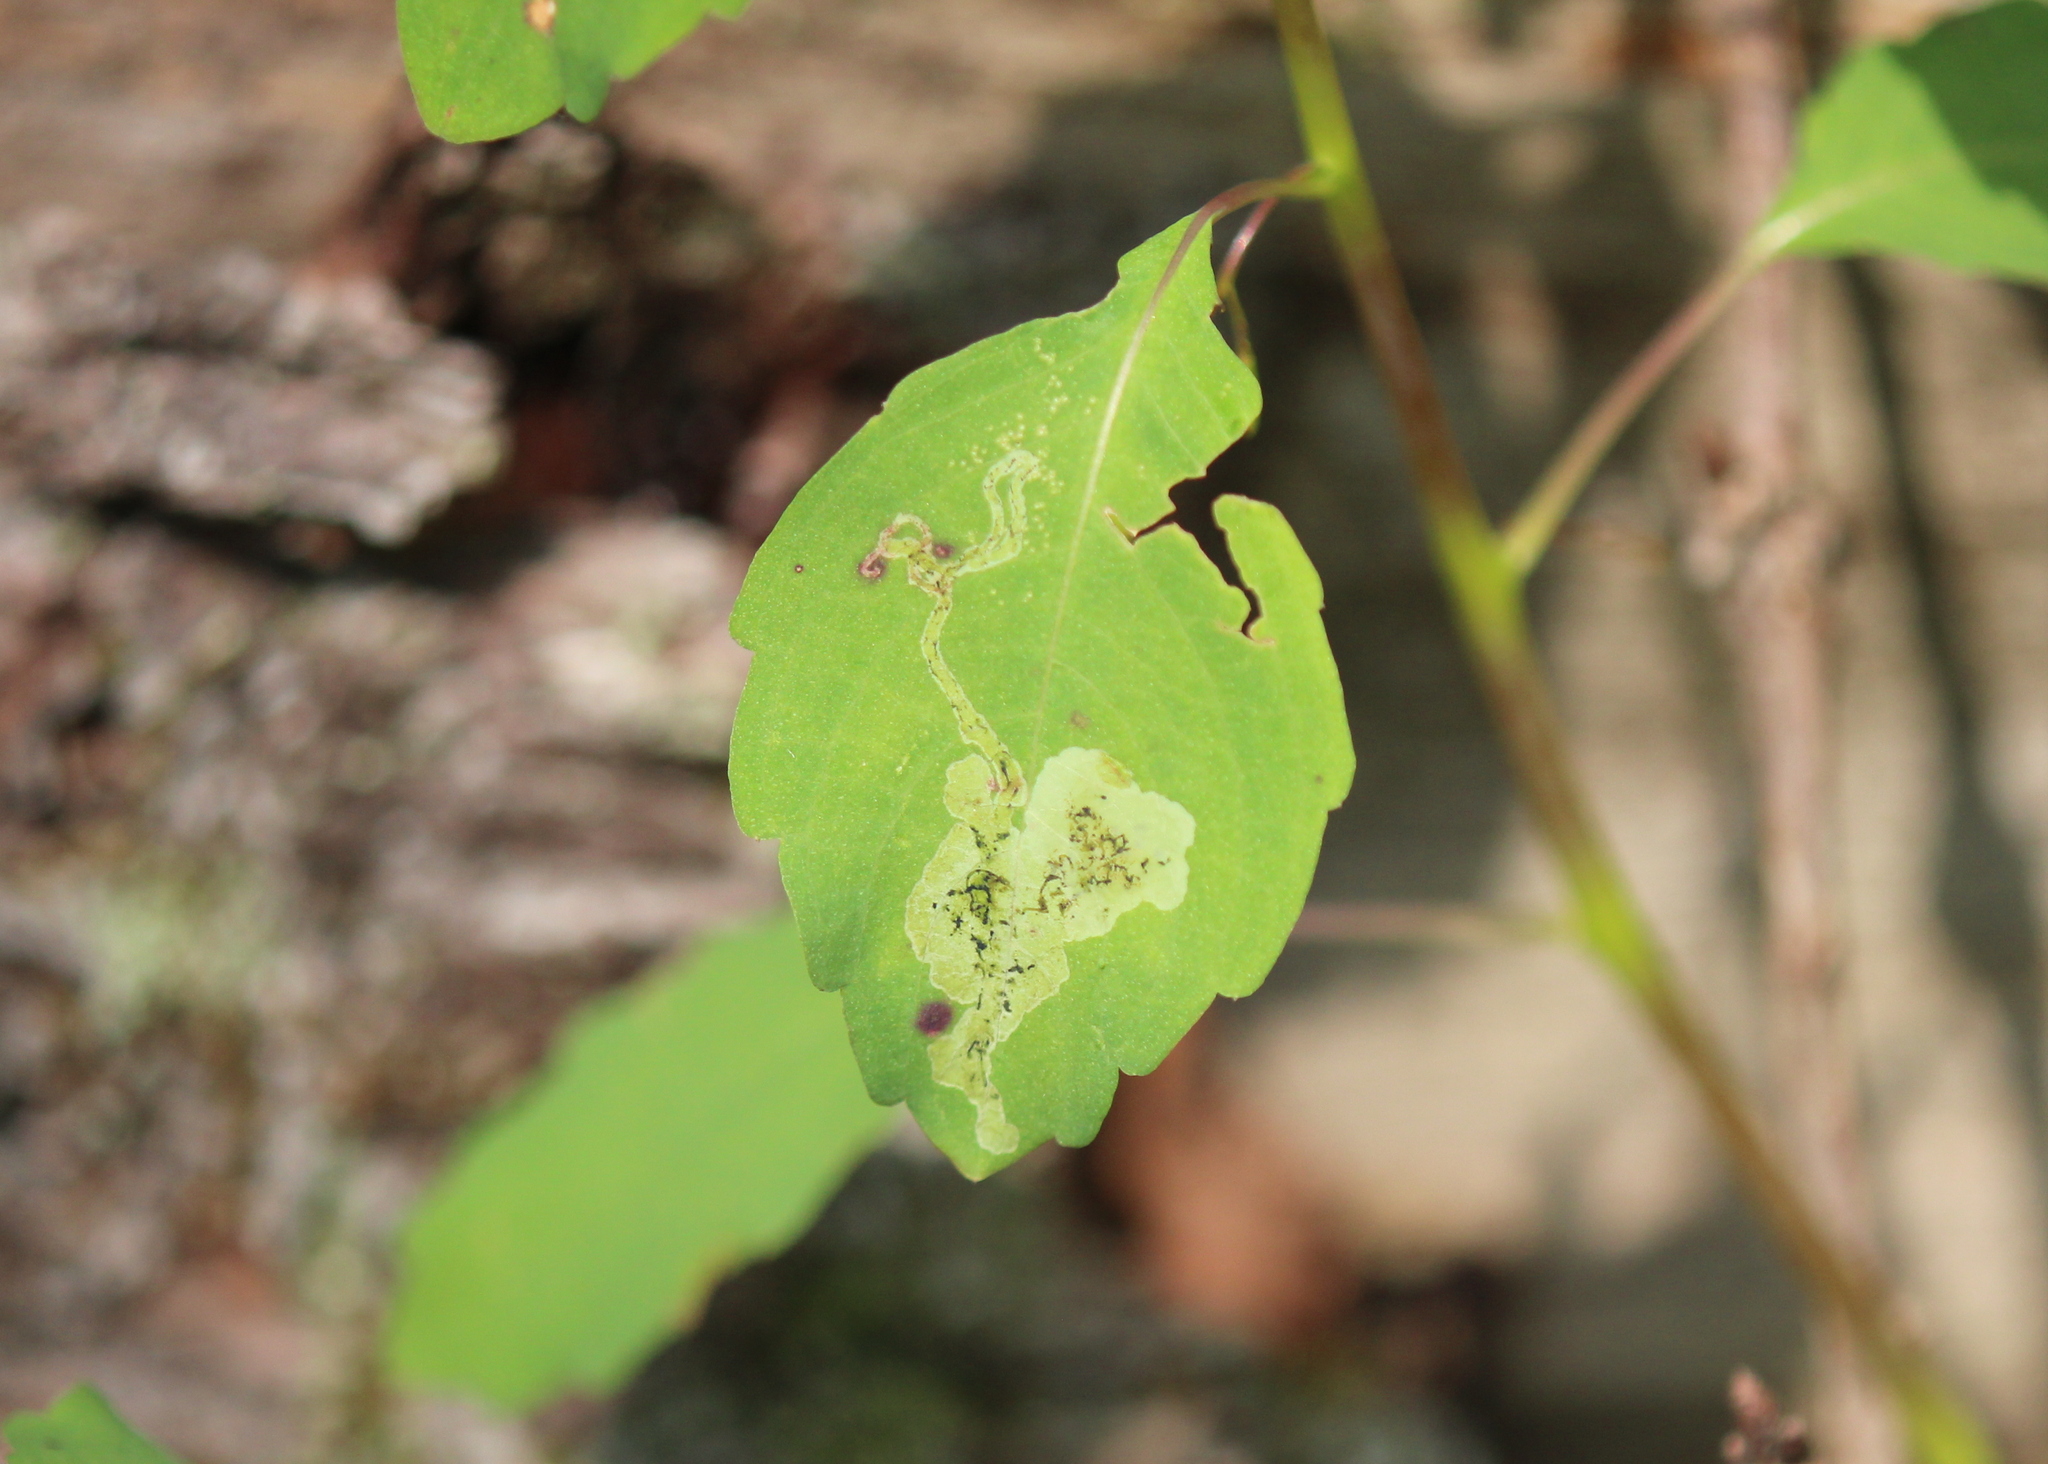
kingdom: Animalia
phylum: Arthropoda
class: Insecta
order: Diptera
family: Agromyzidae
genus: Phytoliriomyza
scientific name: Phytoliriomyza melampyga
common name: Jewelweed leaf-miner fly
